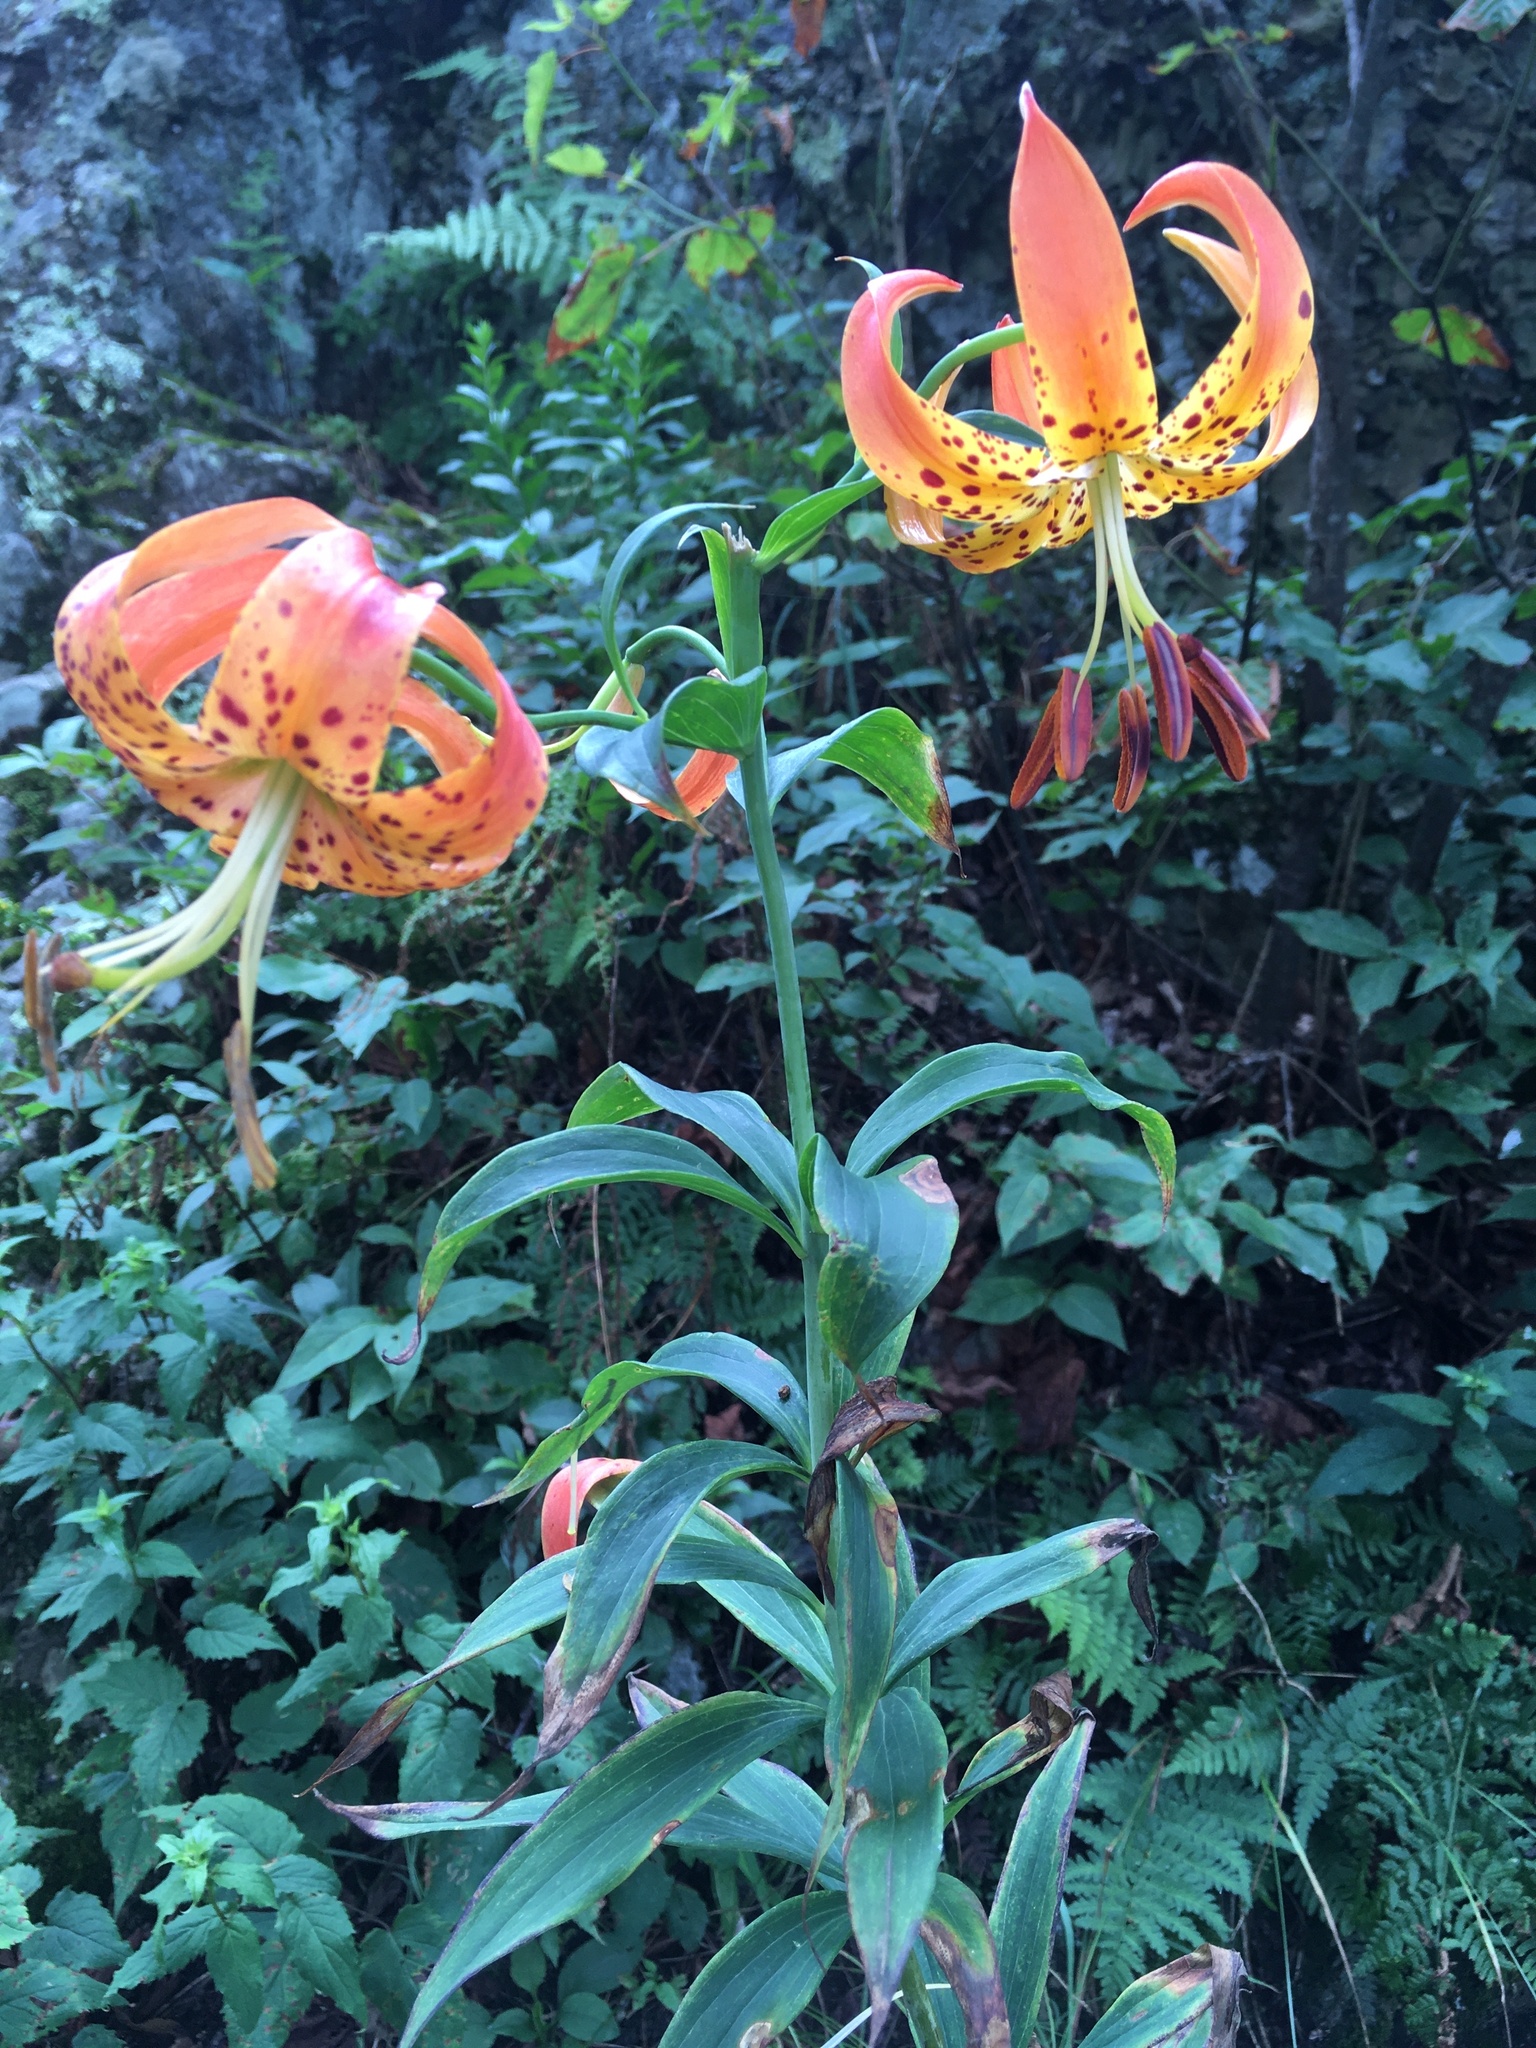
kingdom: Plantae
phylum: Tracheophyta
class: Liliopsida
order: Liliales
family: Liliaceae
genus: Lilium
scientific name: Lilium superbum
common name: American turk's-cap lily
